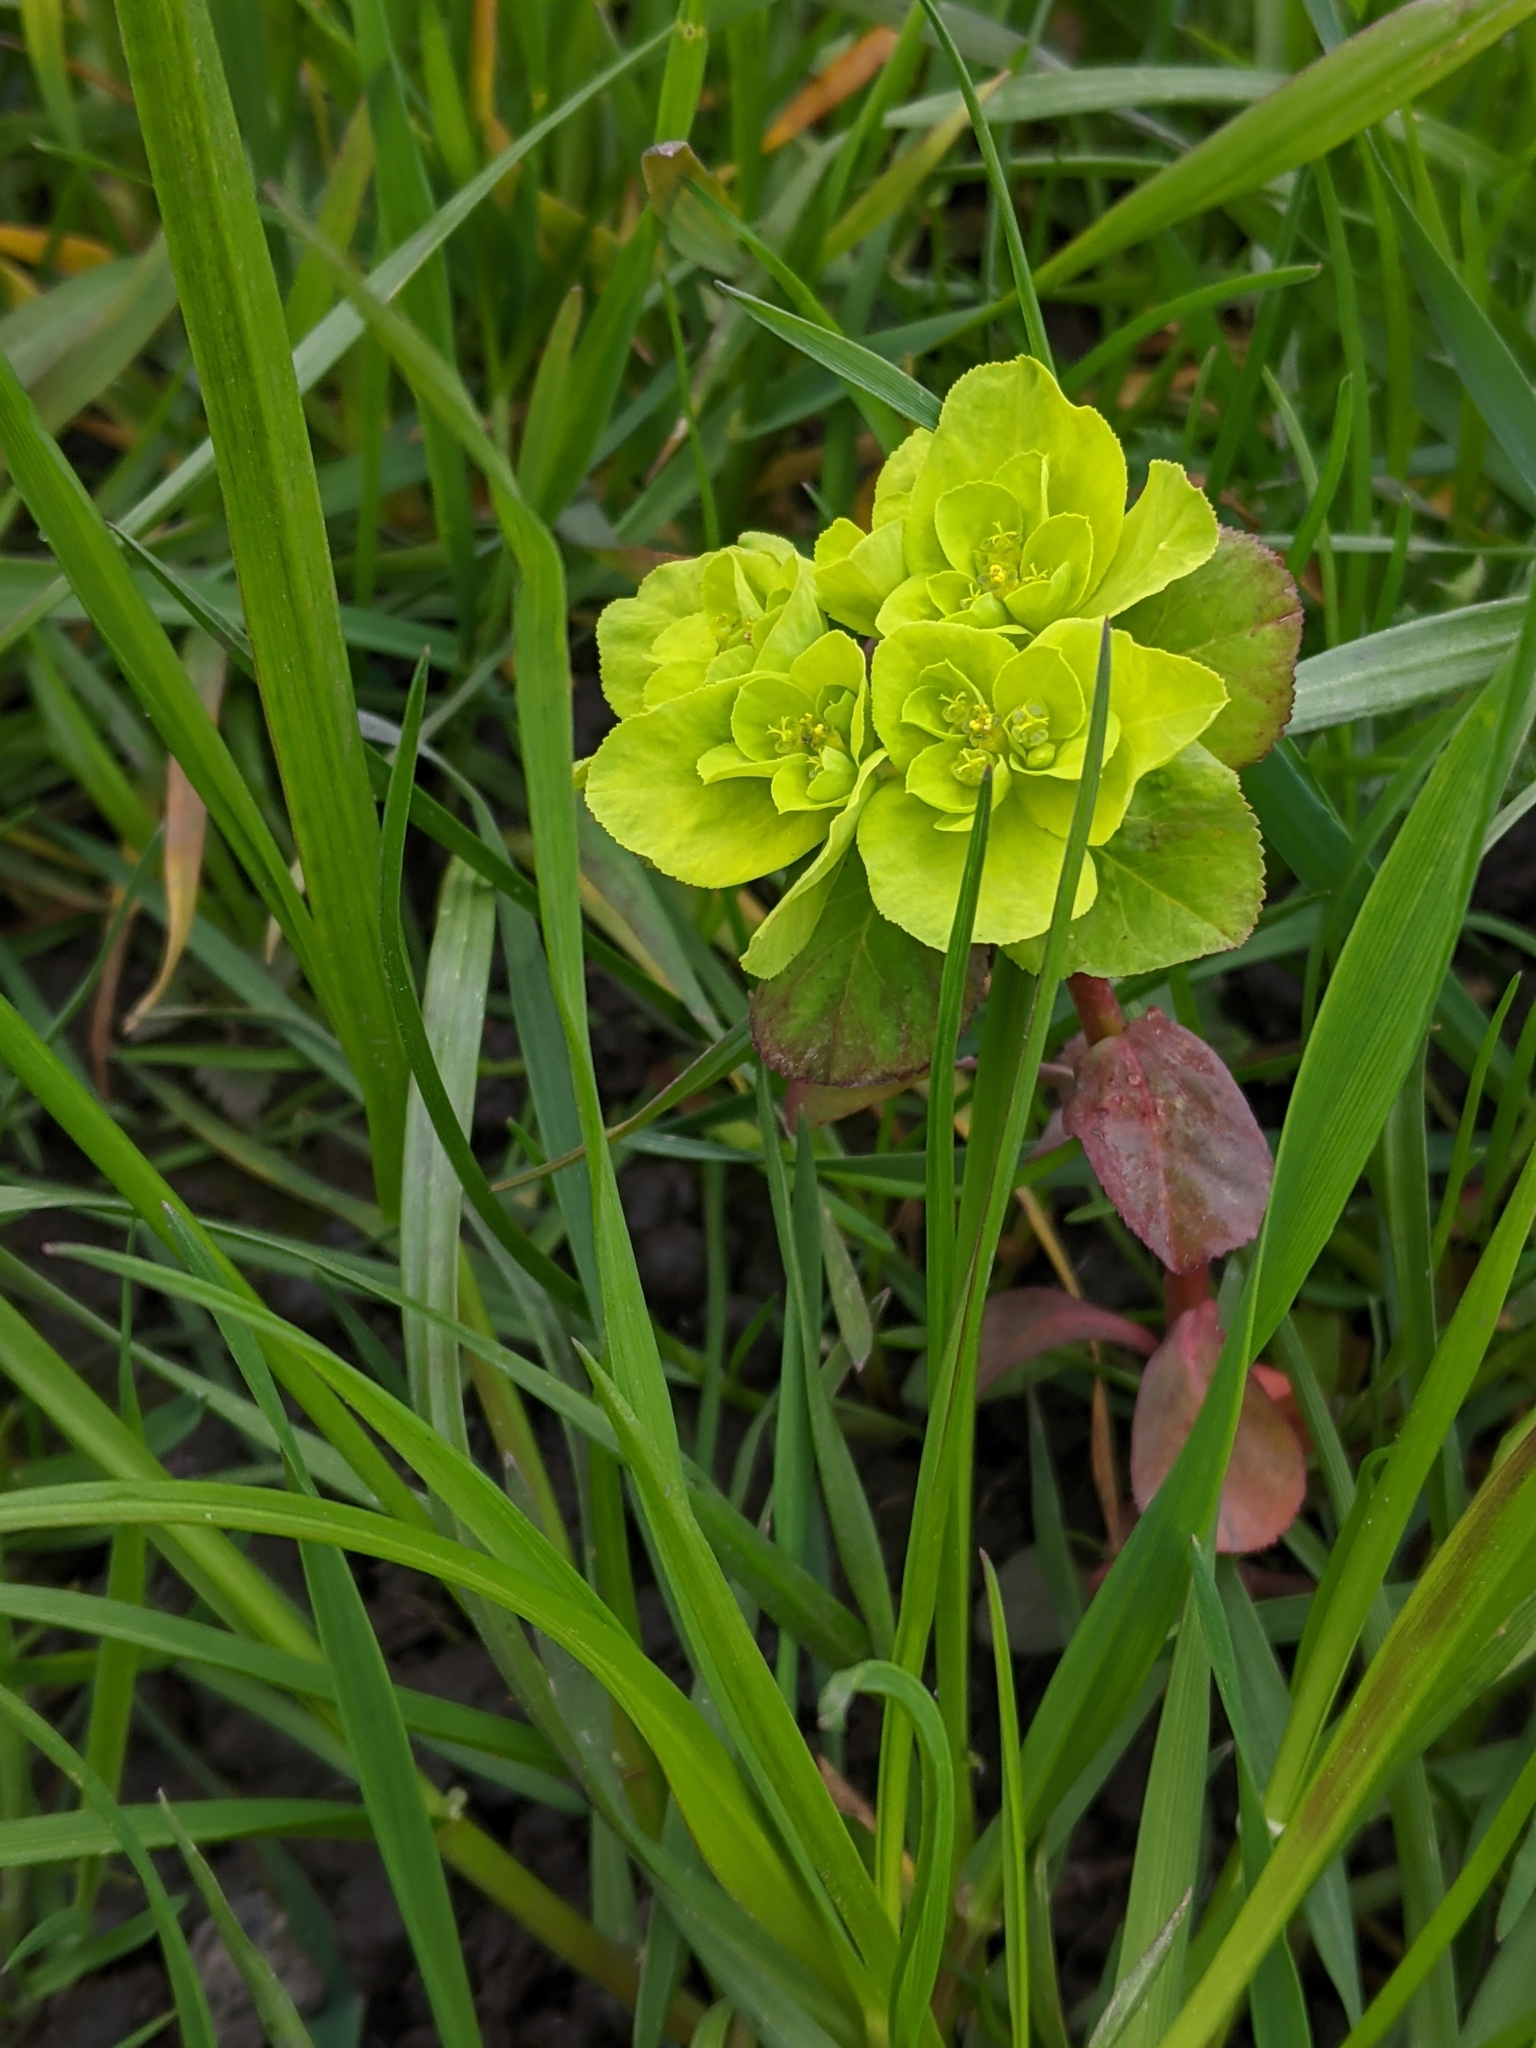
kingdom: Plantae
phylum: Tracheophyta
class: Magnoliopsida
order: Malpighiales
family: Euphorbiaceae
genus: Euphorbia
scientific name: Euphorbia helioscopia
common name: Sun spurge
